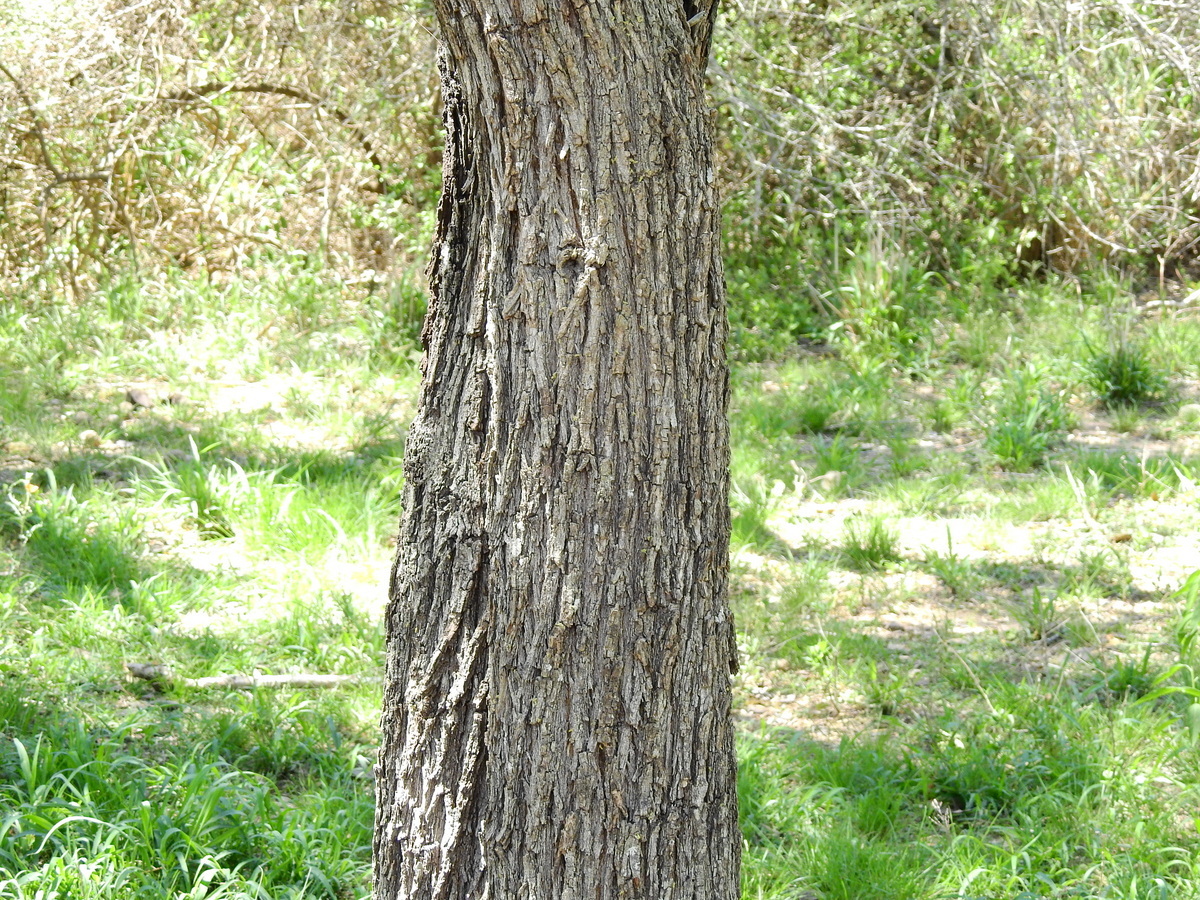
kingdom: Plantae
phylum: Tracheophyta
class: Magnoliopsida
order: Fabales
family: Fabaceae
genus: Prosopis
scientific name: Prosopis alba
